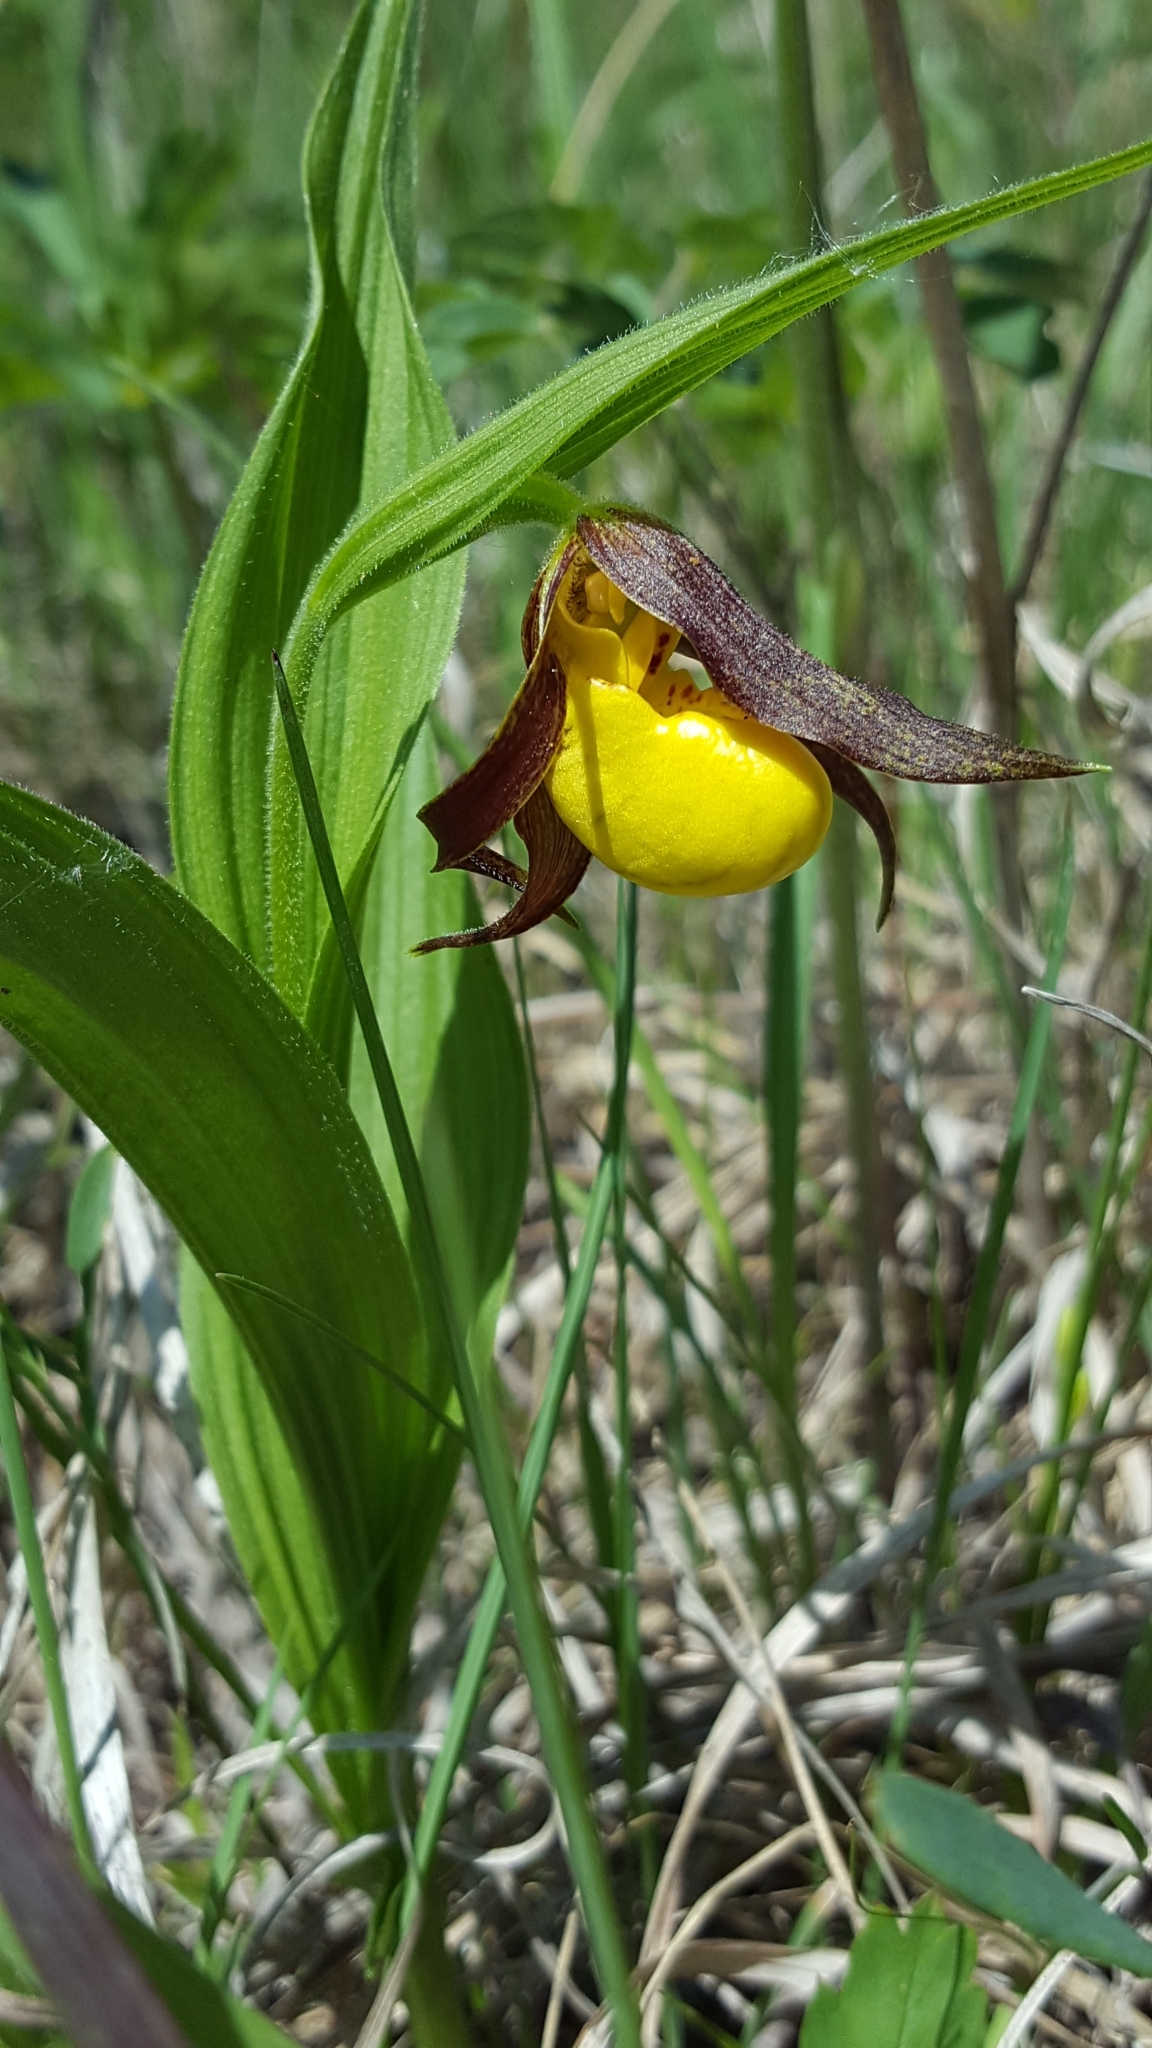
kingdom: Plantae
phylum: Tracheophyta
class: Liliopsida
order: Asparagales
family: Orchidaceae
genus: Cypripedium
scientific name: Cypripedium parviflorum
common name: American yellow lady's-slipper
